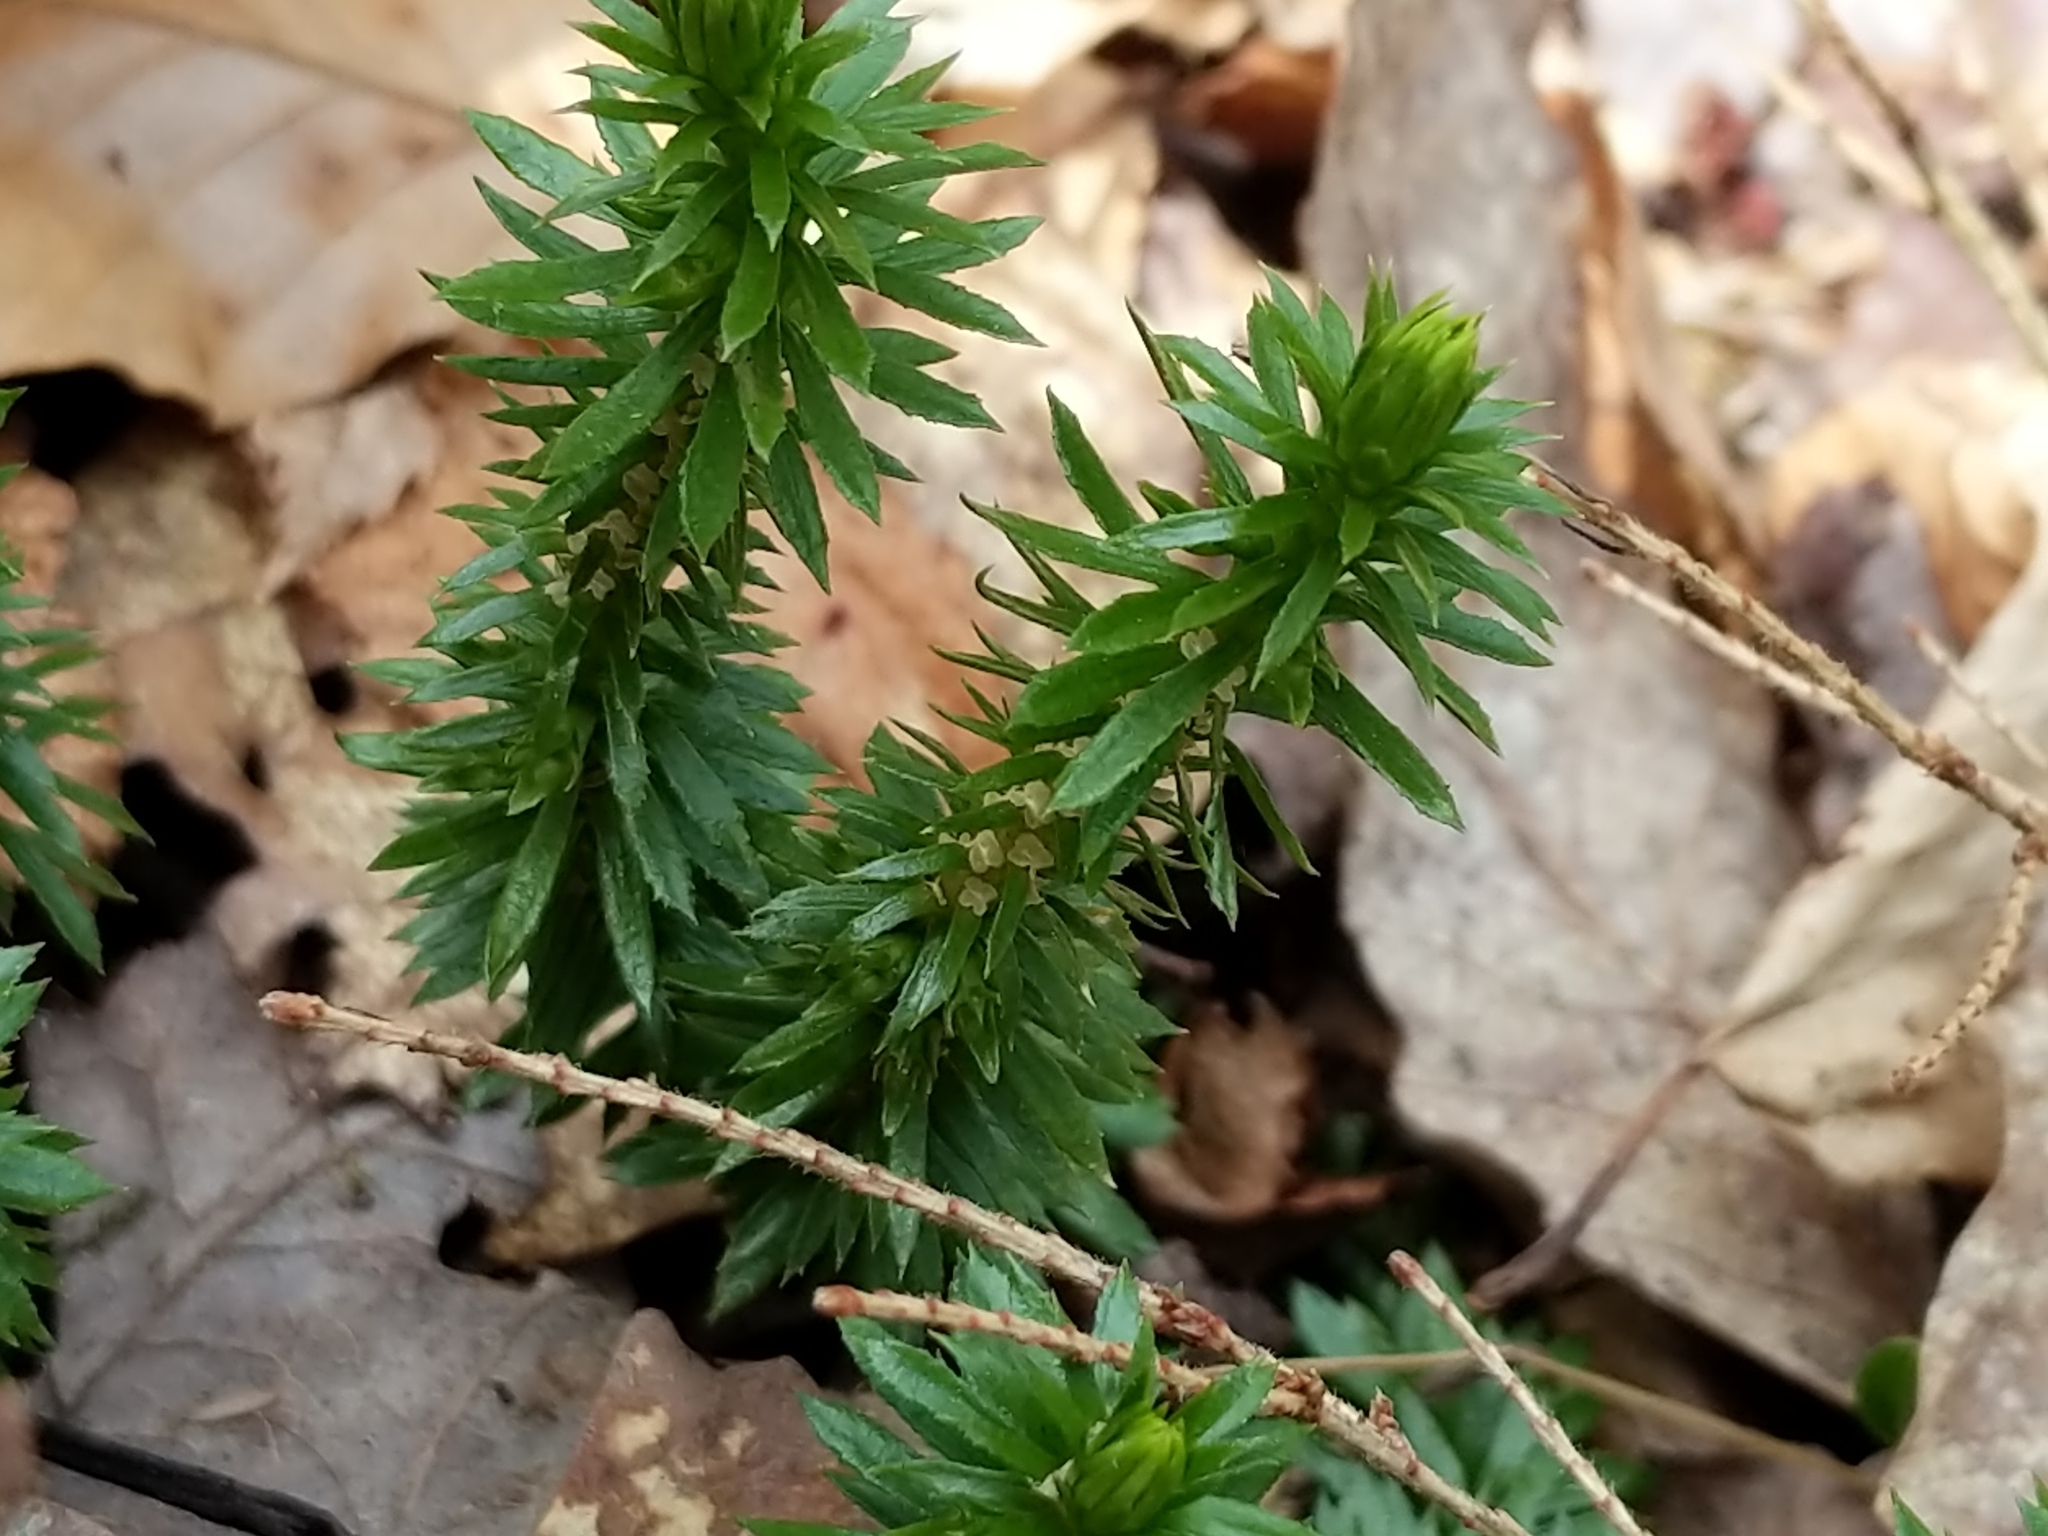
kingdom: Plantae
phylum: Tracheophyta
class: Lycopodiopsida
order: Lycopodiales
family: Lycopodiaceae
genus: Huperzia
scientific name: Huperzia lucidula
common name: Shining clubmoss
